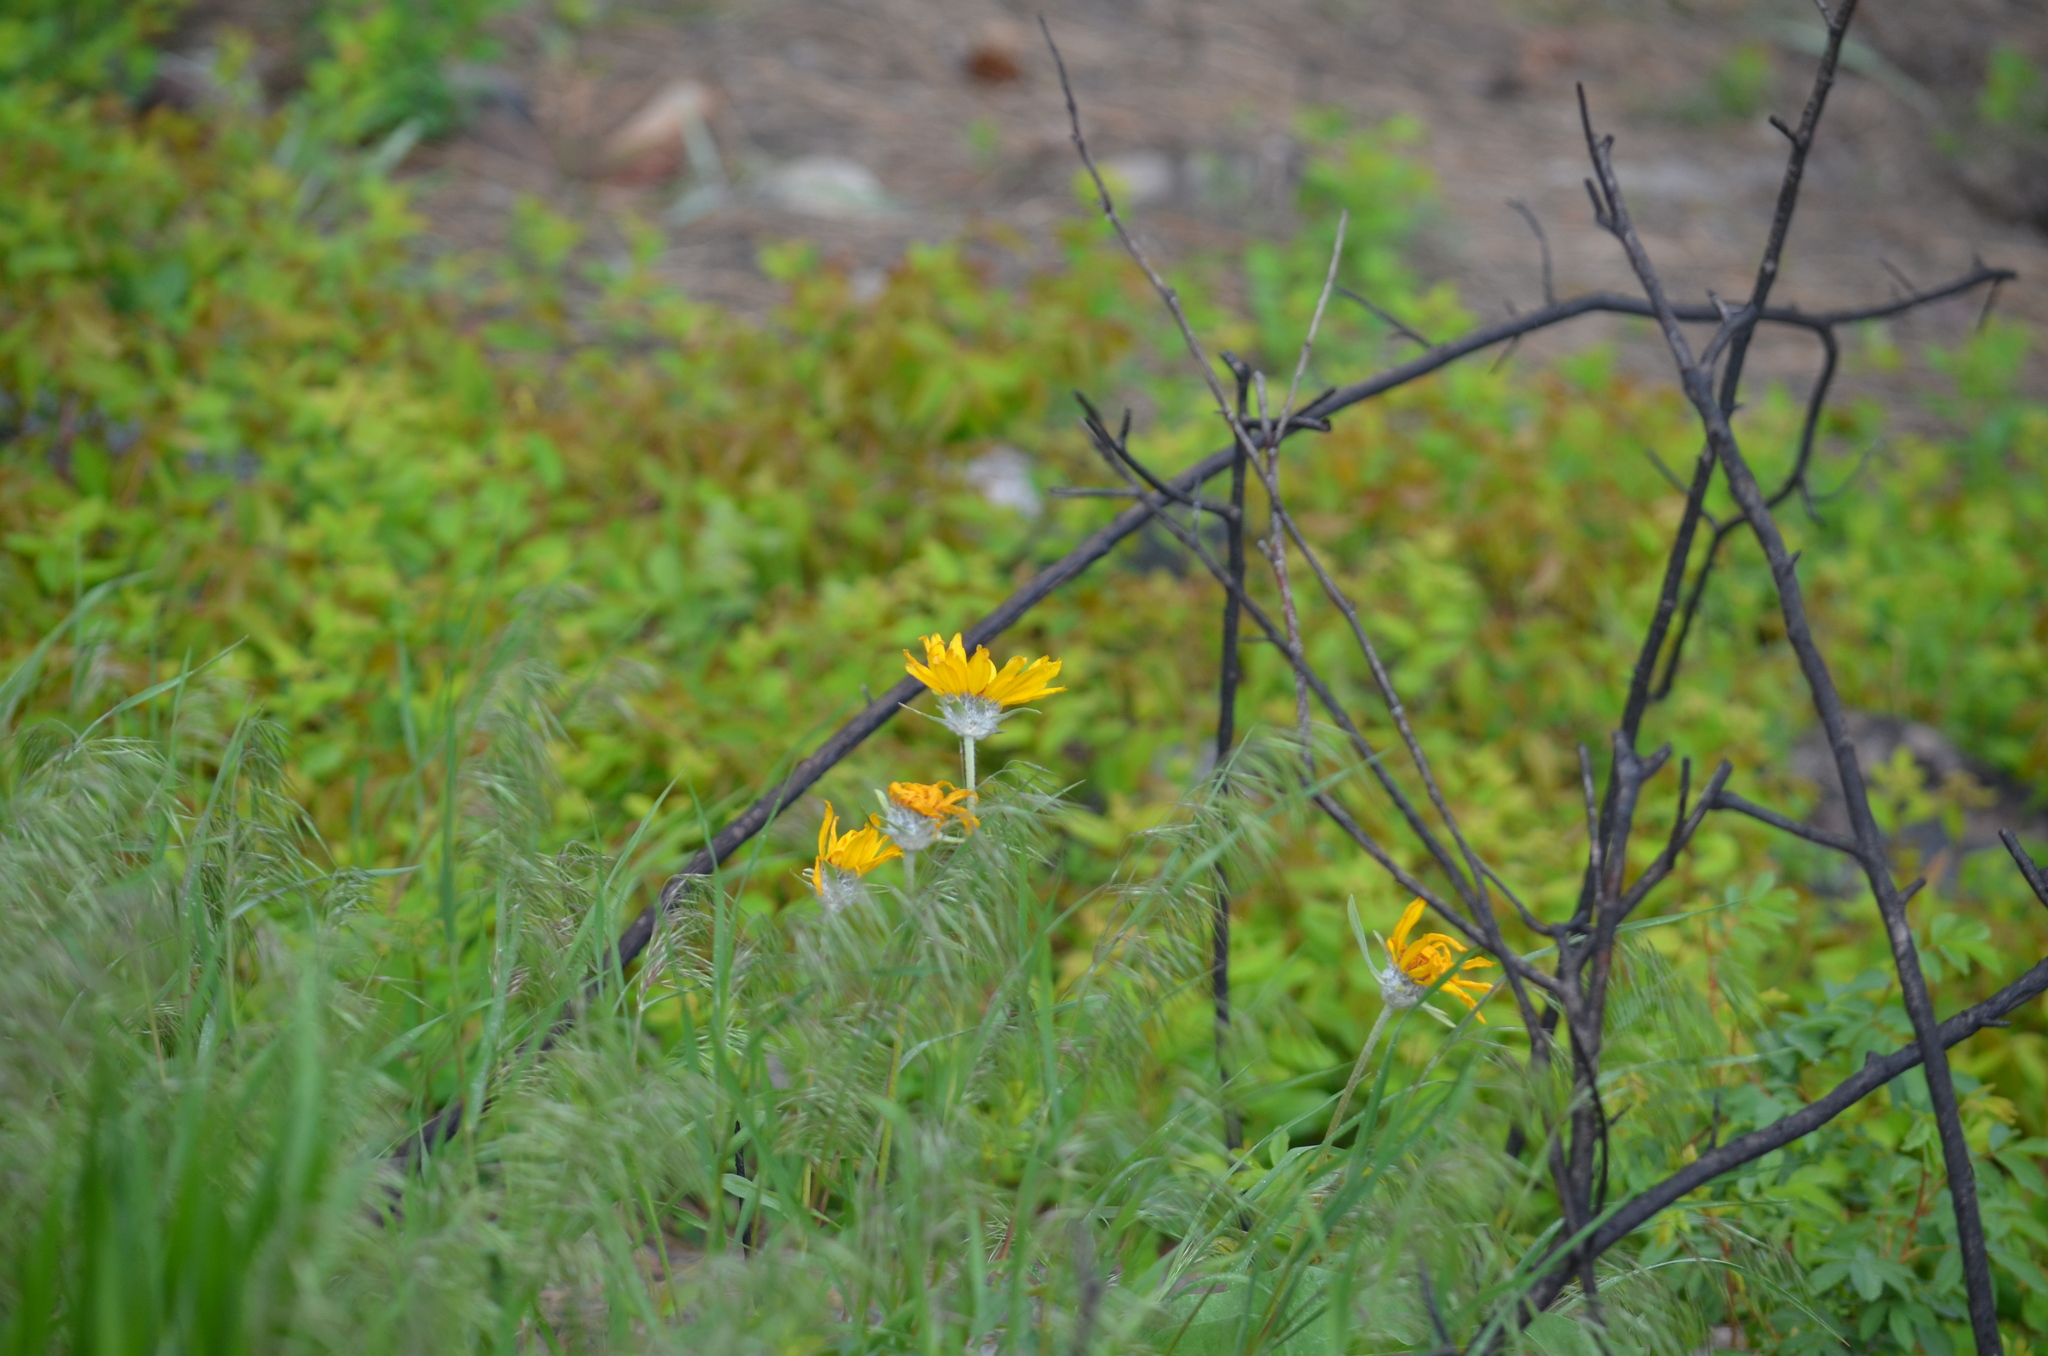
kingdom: Plantae
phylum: Tracheophyta
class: Magnoliopsida
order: Asterales
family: Asteraceae
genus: Wyethia
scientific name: Wyethia sagittata
